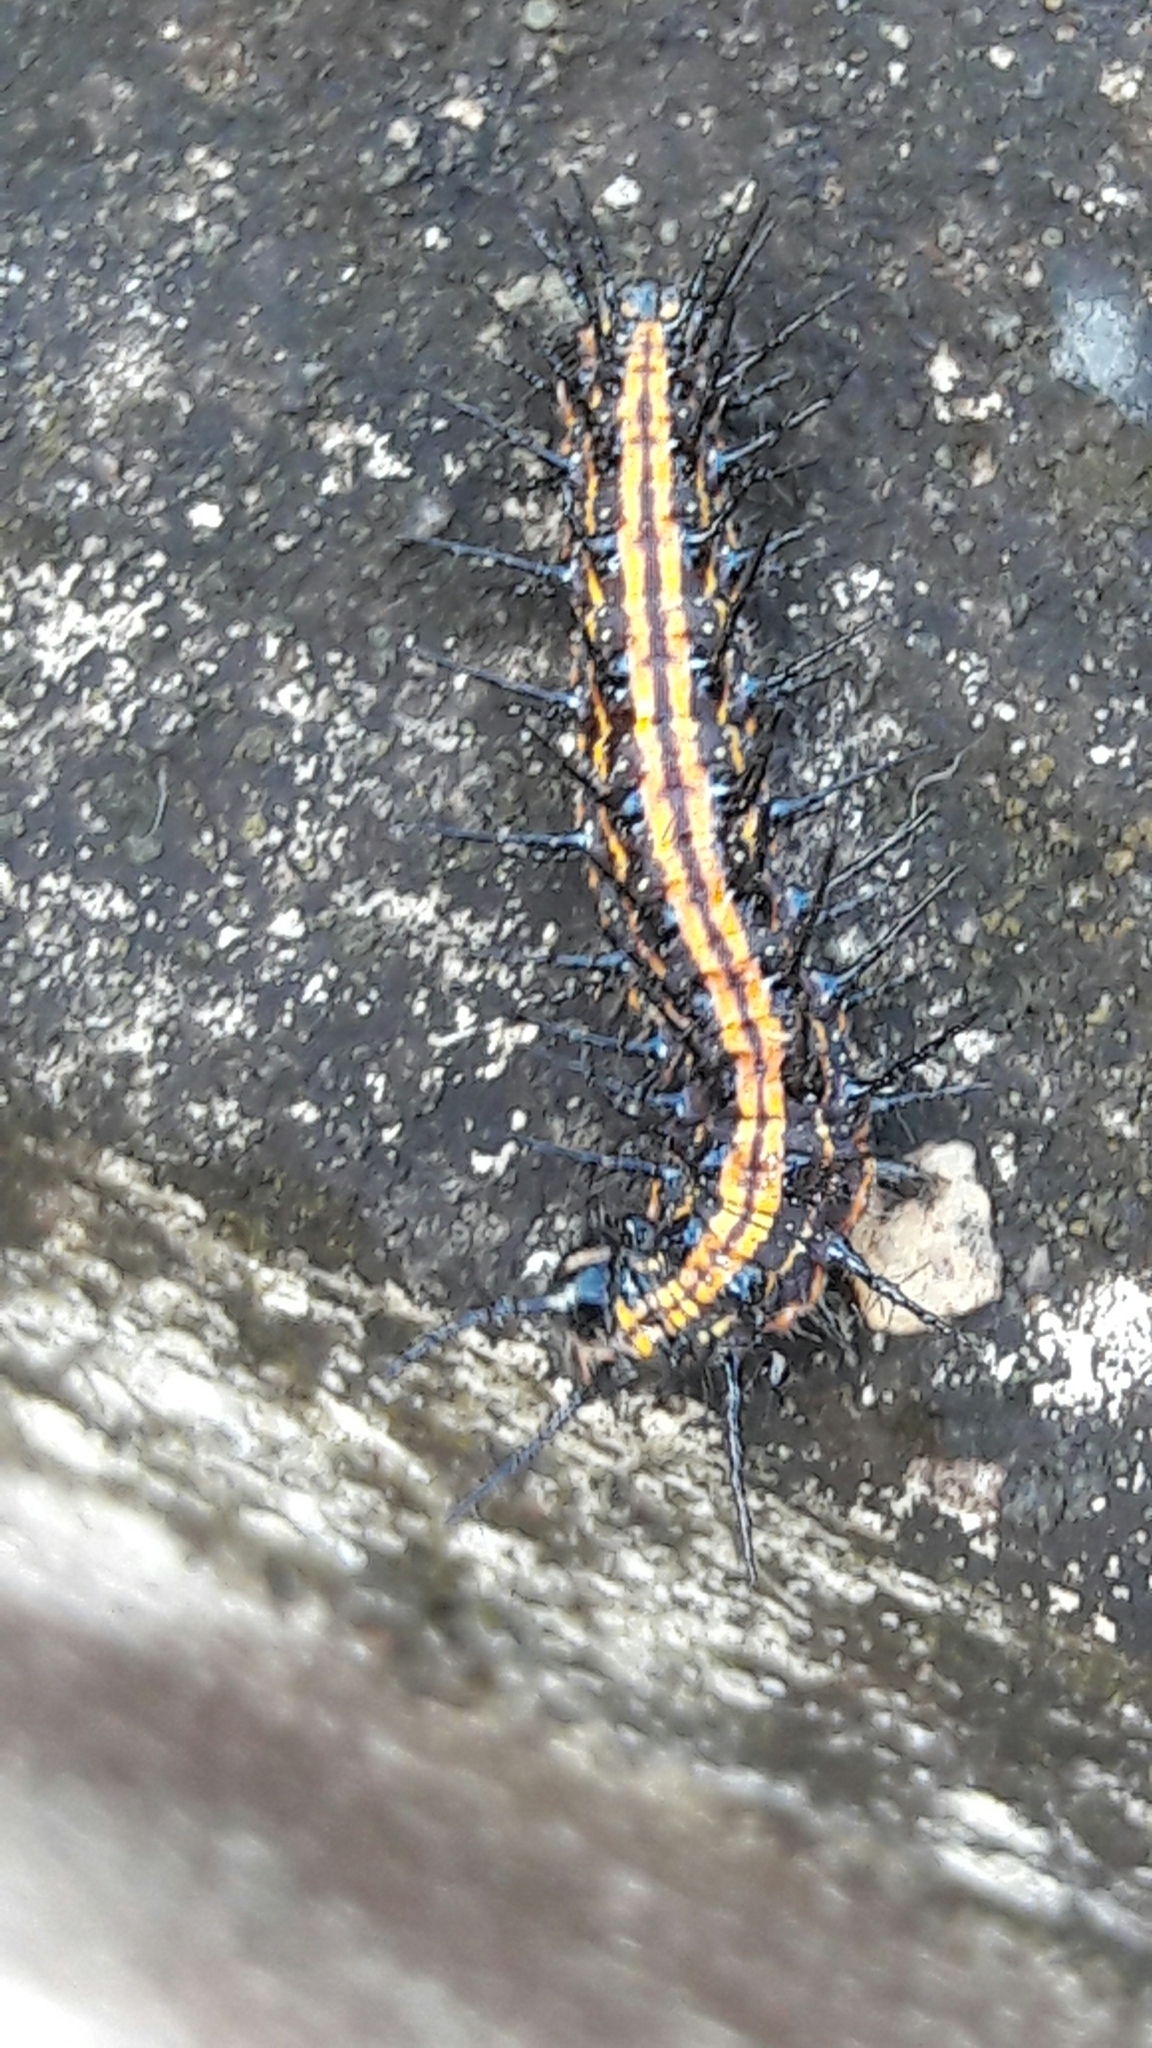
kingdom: Animalia
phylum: Arthropoda
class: Insecta
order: Lepidoptera
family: Nymphalidae
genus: Dione
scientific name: Dione vanillae
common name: Gulf fritillary
